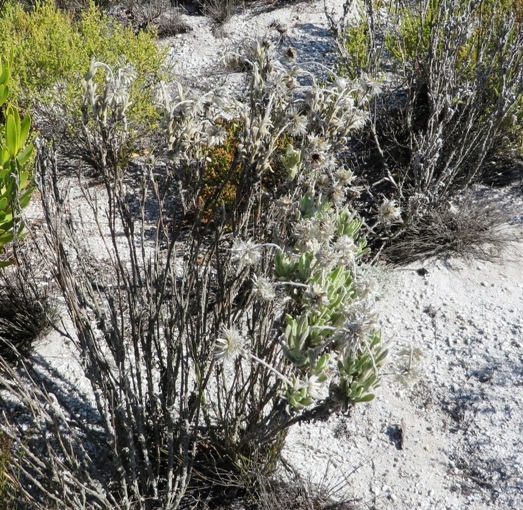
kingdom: Plantae
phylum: Tracheophyta
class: Magnoliopsida
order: Asterales
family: Asteraceae
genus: Syncarpha
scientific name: Syncarpha vestita
